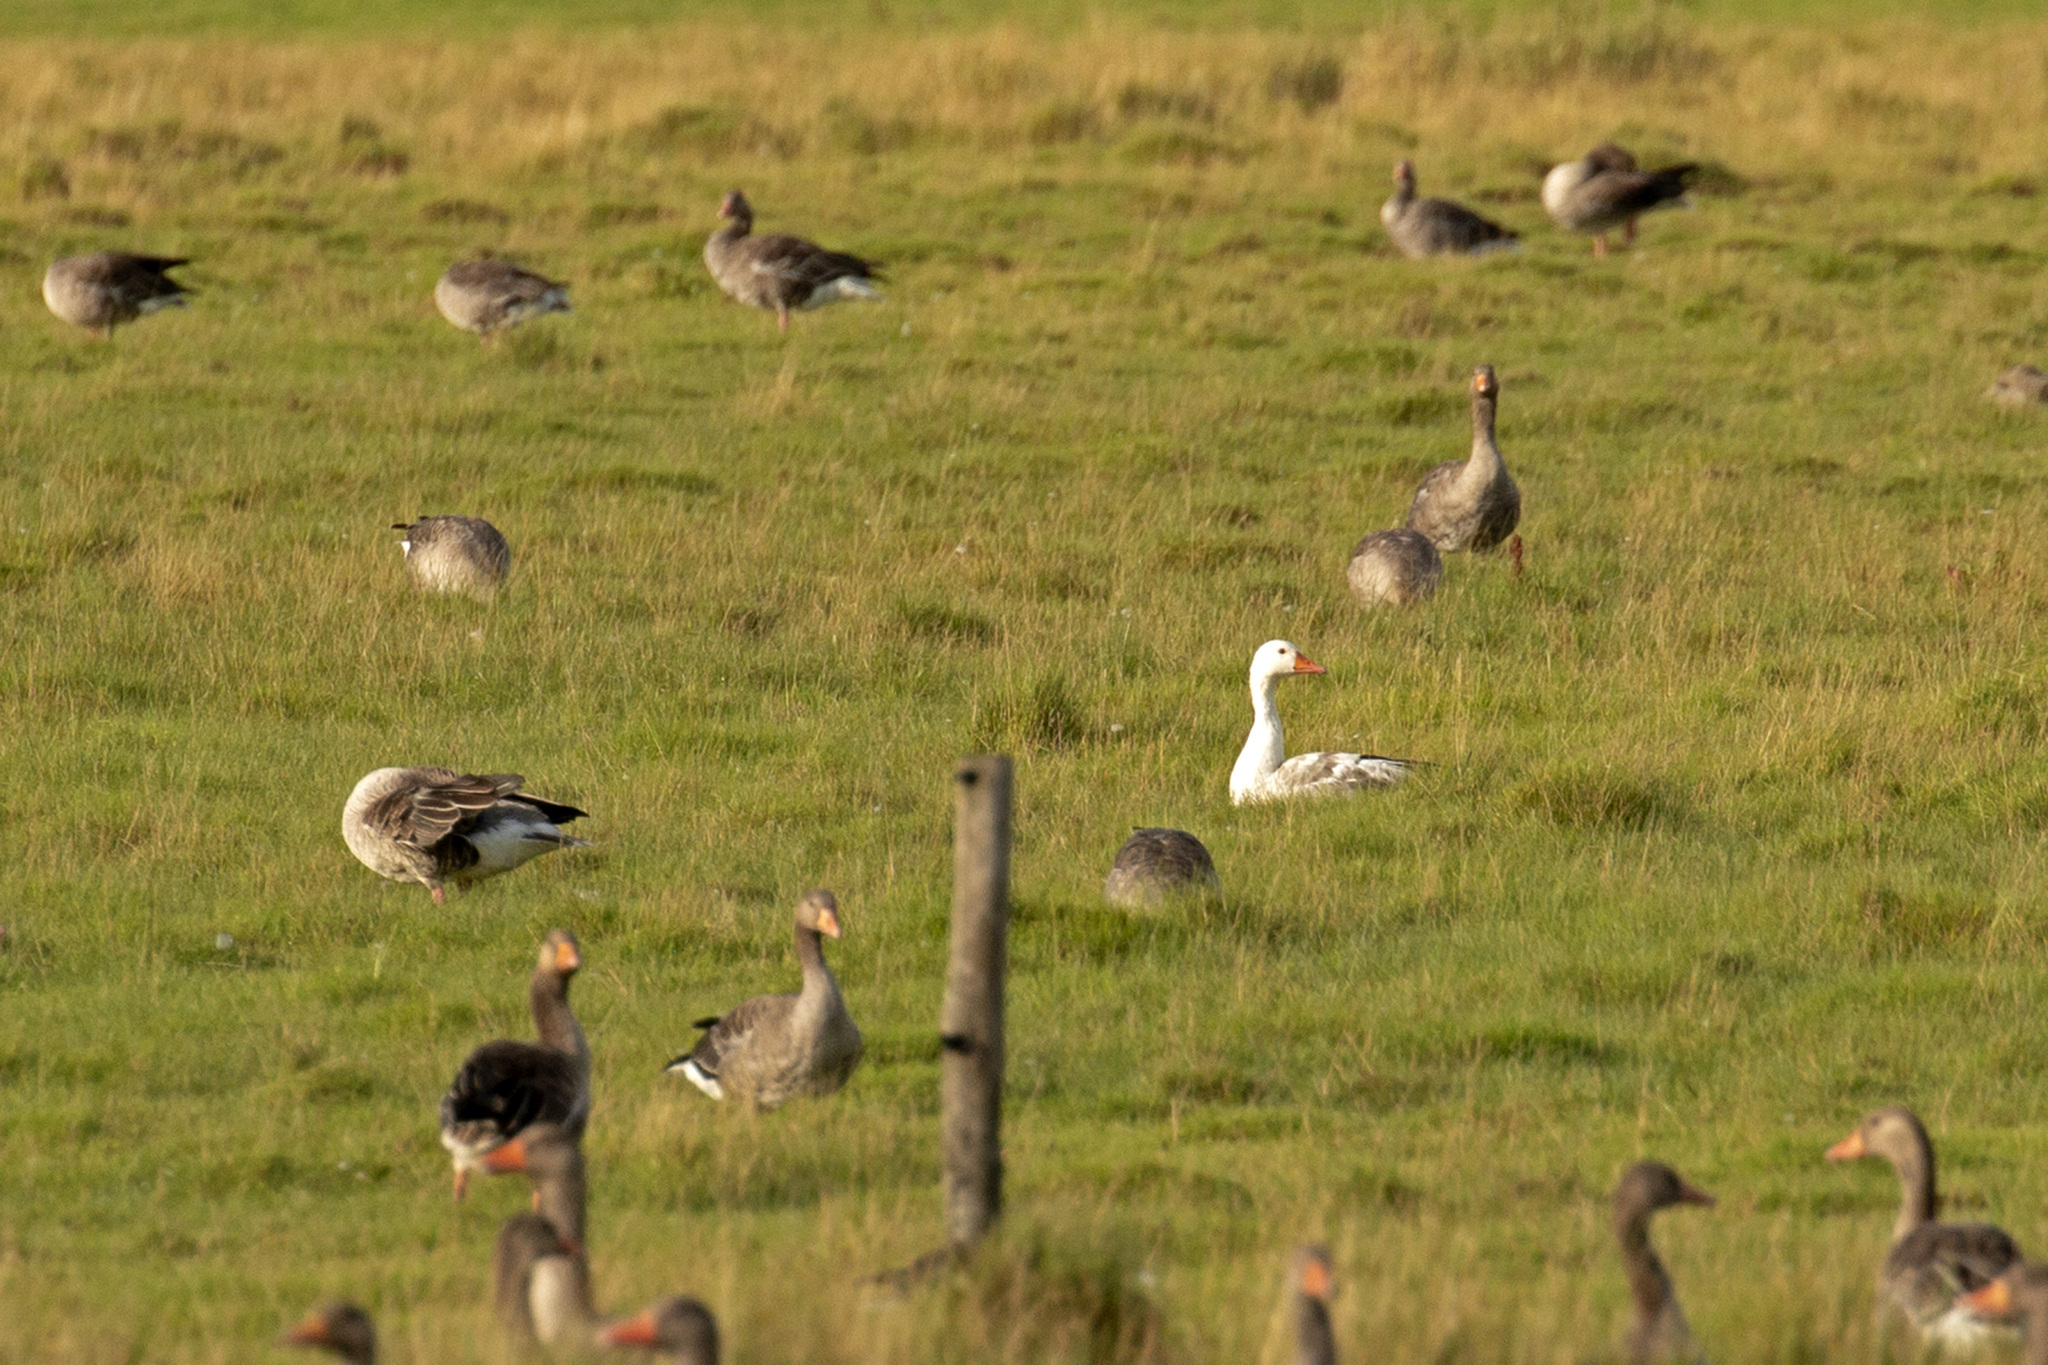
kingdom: Animalia
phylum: Chordata
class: Aves
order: Anseriformes
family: Anatidae
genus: Anser
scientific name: Anser anser
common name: Greylag goose
